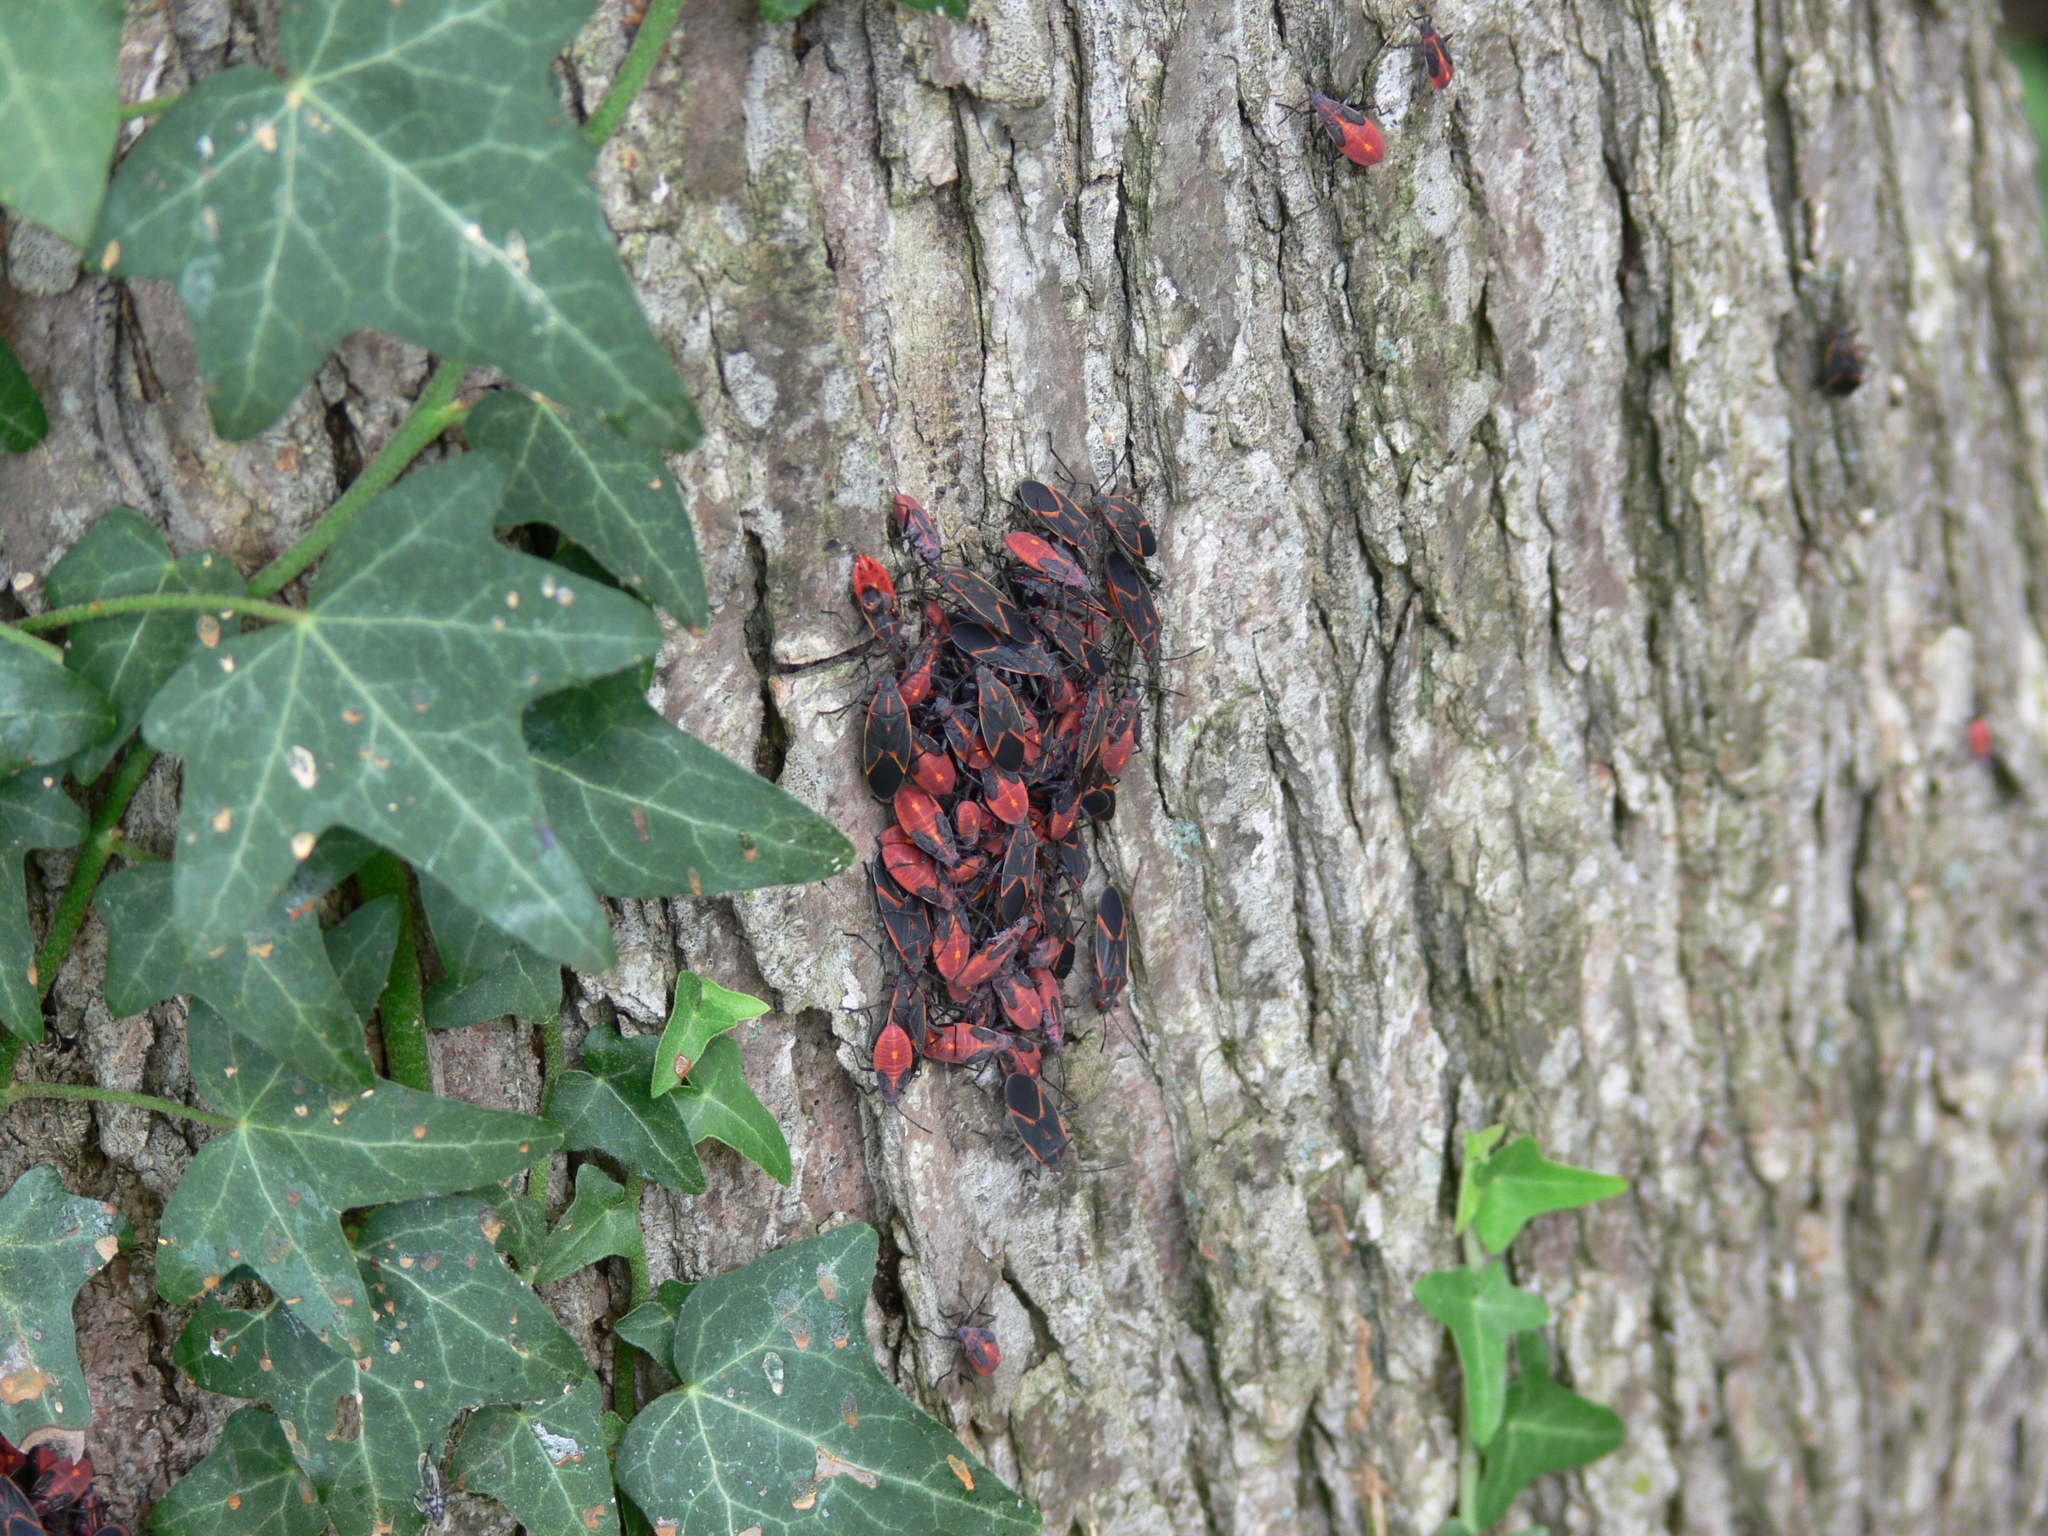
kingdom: Animalia
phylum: Arthropoda
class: Insecta
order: Hemiptera
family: Rhopalidae
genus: Boisea
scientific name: Boisea trivittata
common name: Boxelder bug
